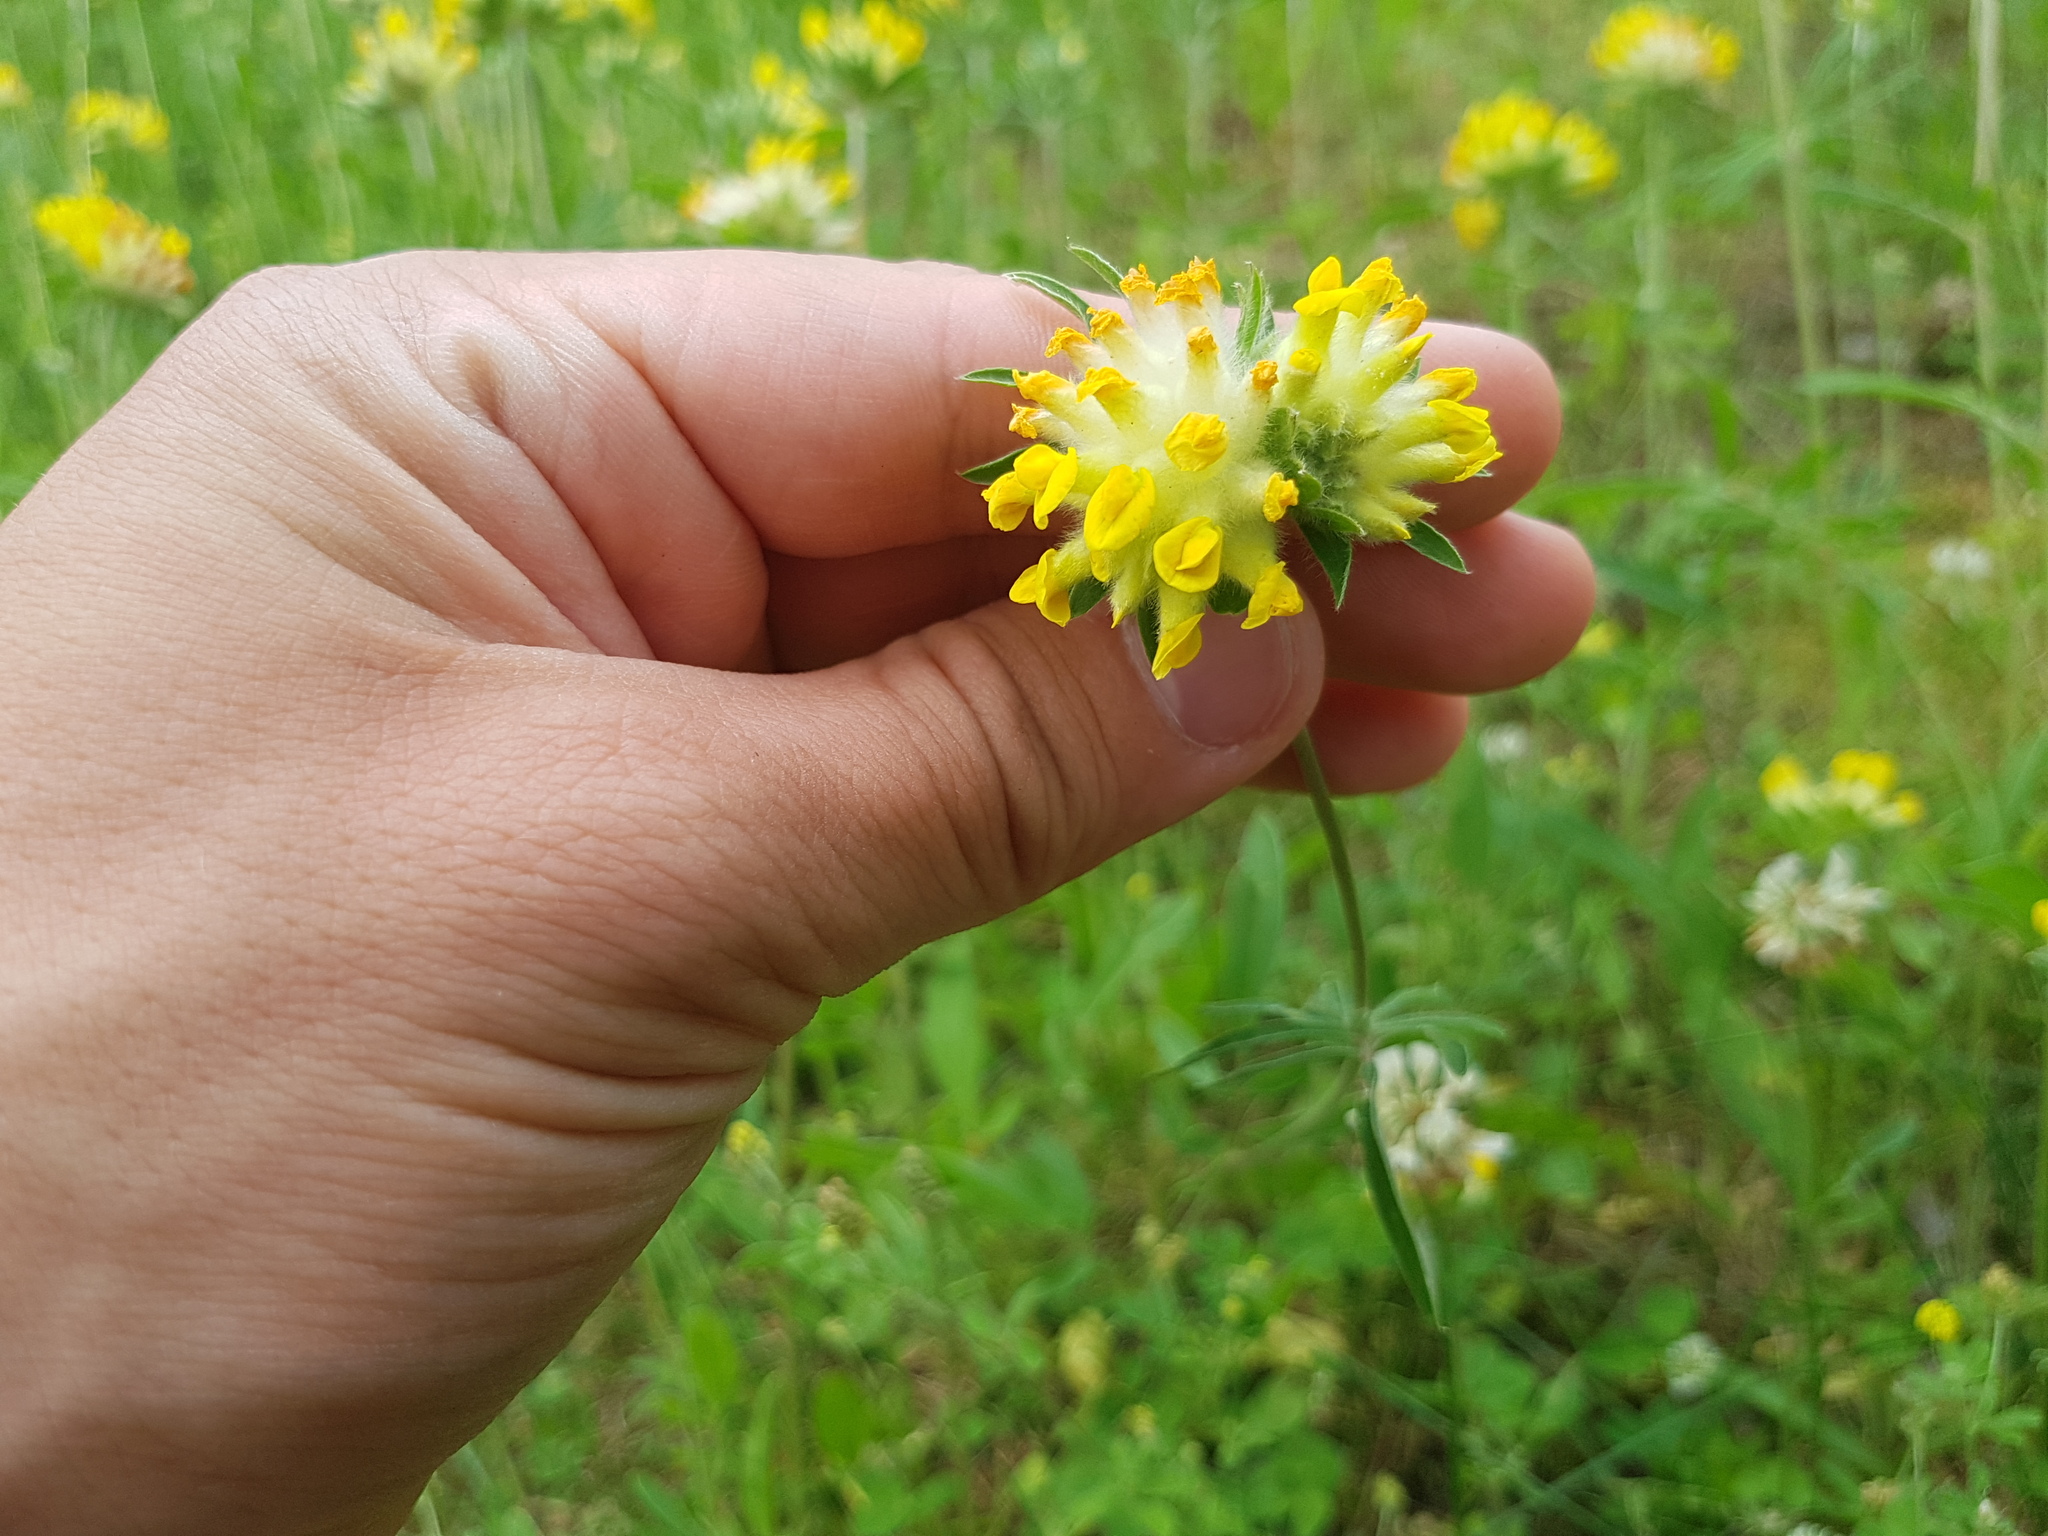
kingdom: Plantae
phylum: Tracheophyta
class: Magnoliopsida
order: Fabales
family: Fabaceae
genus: Anthyllis
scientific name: Anthyllis vulneraria
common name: Kidney vetch
